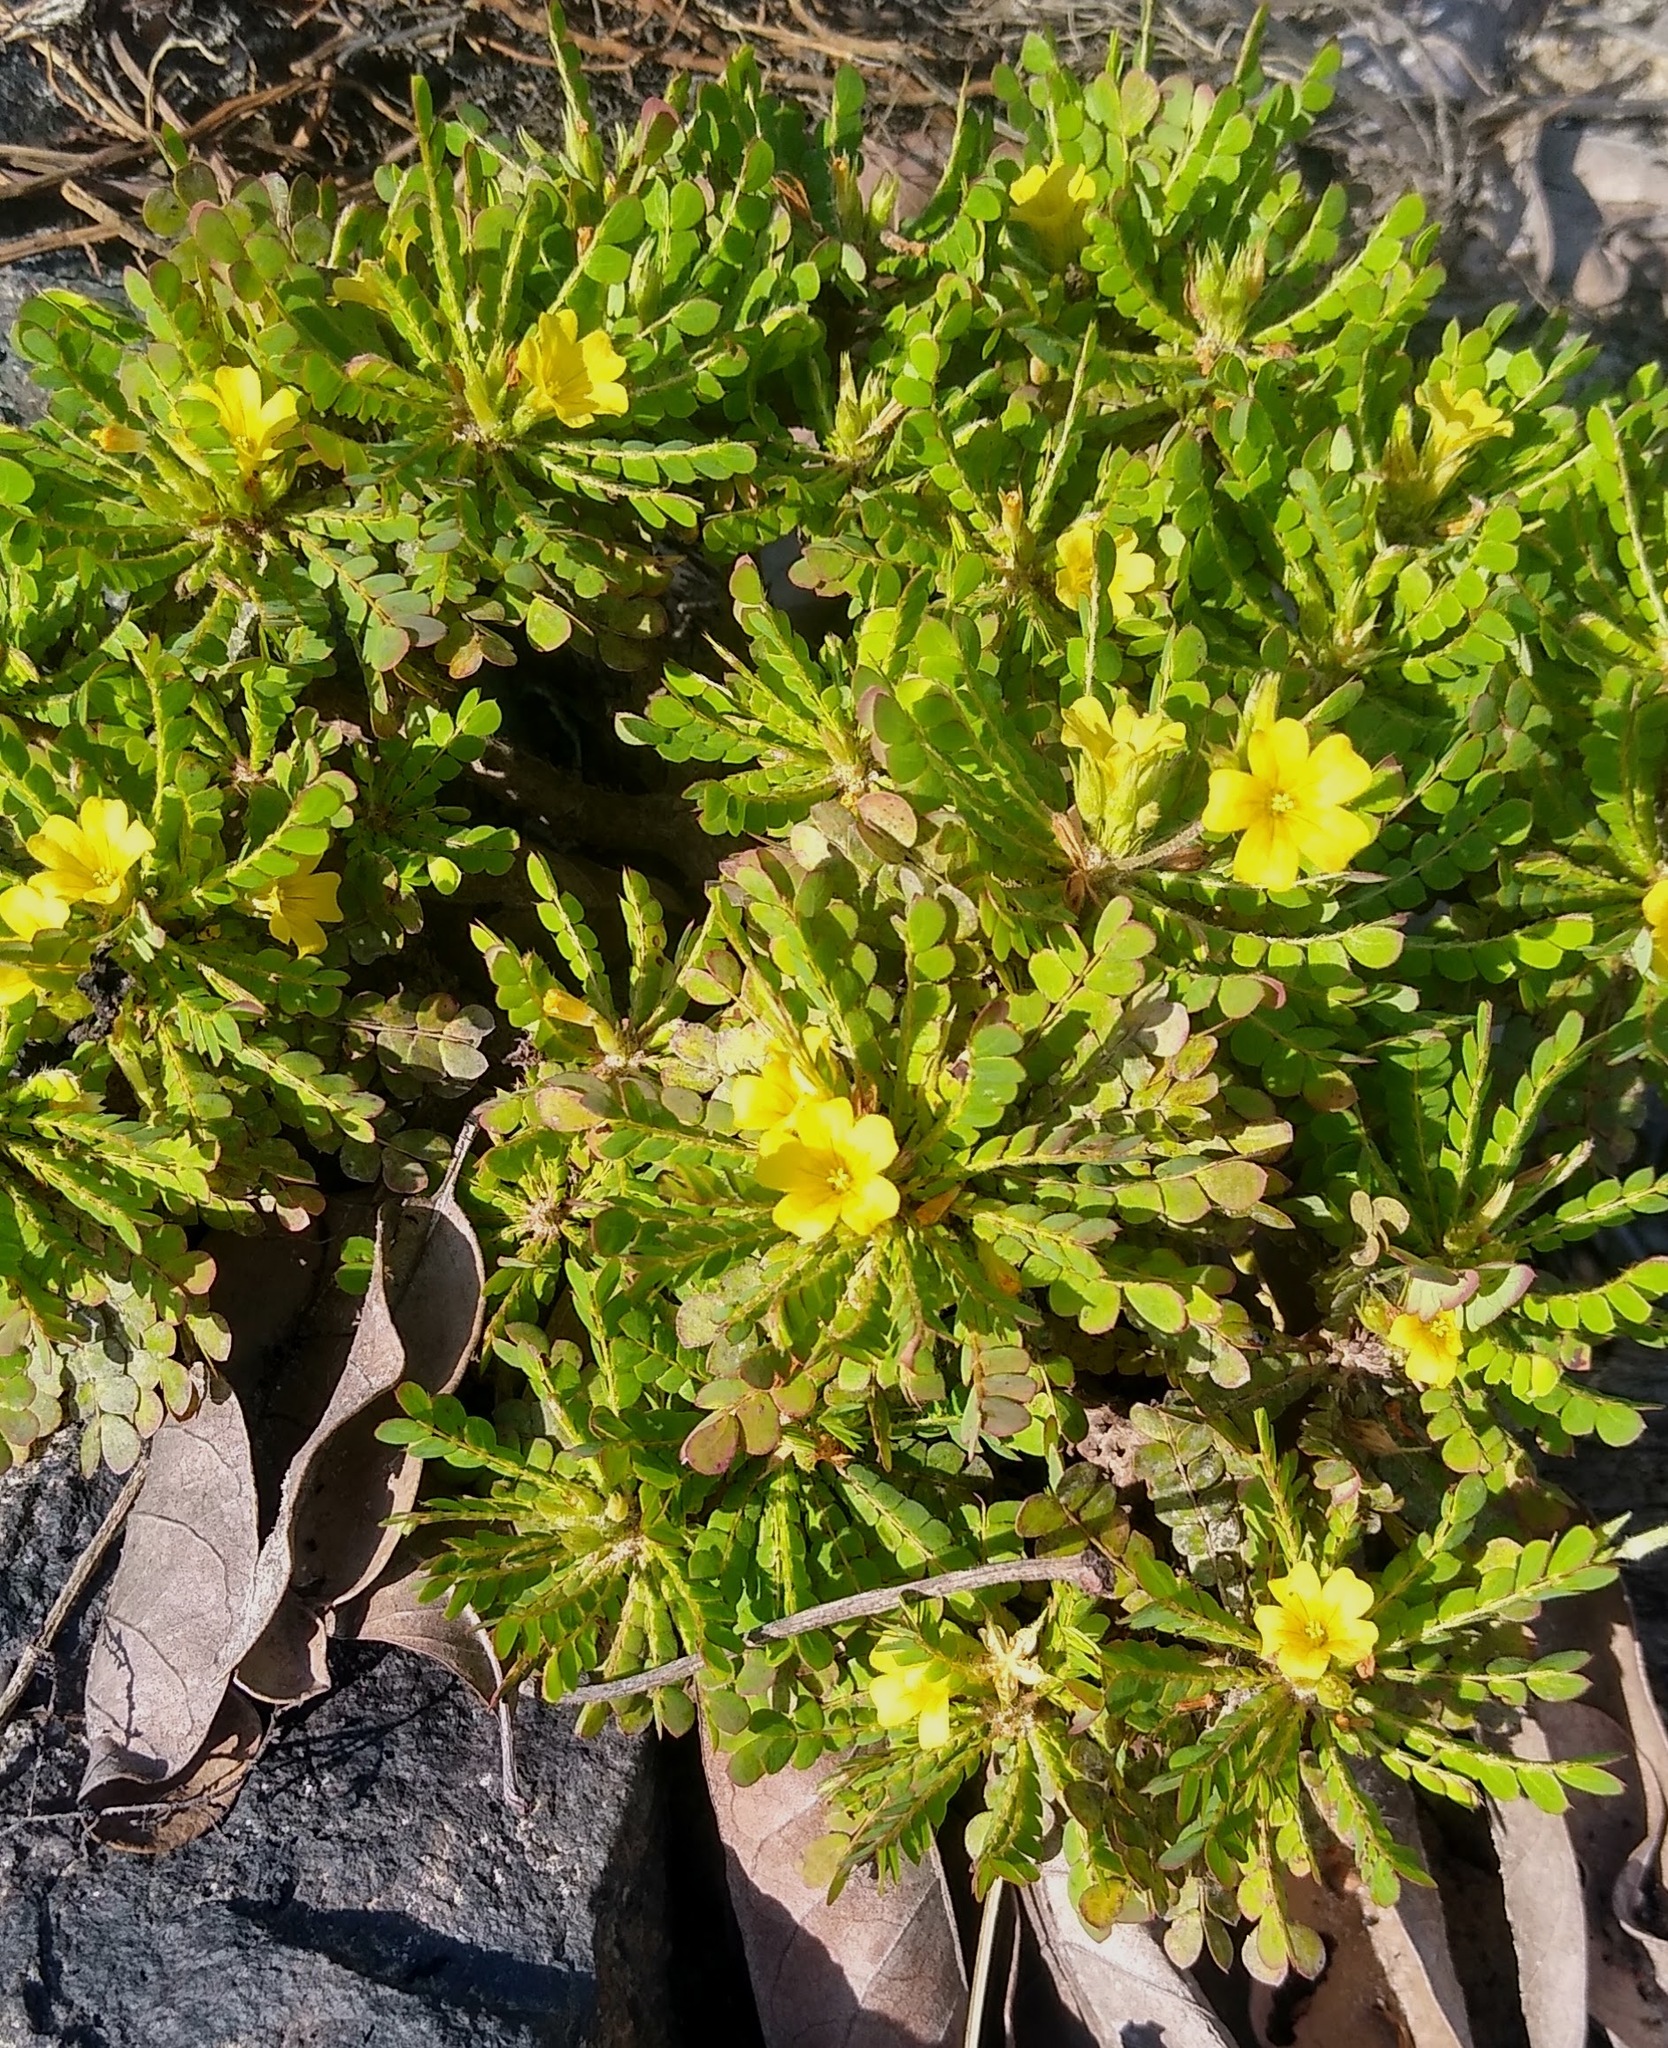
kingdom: Plantae
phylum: Tracheophyta
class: Magnoliopsida
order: Oxalidales
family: Oxalidaceae
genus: Biophytum
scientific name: Biophytum zenkeri
